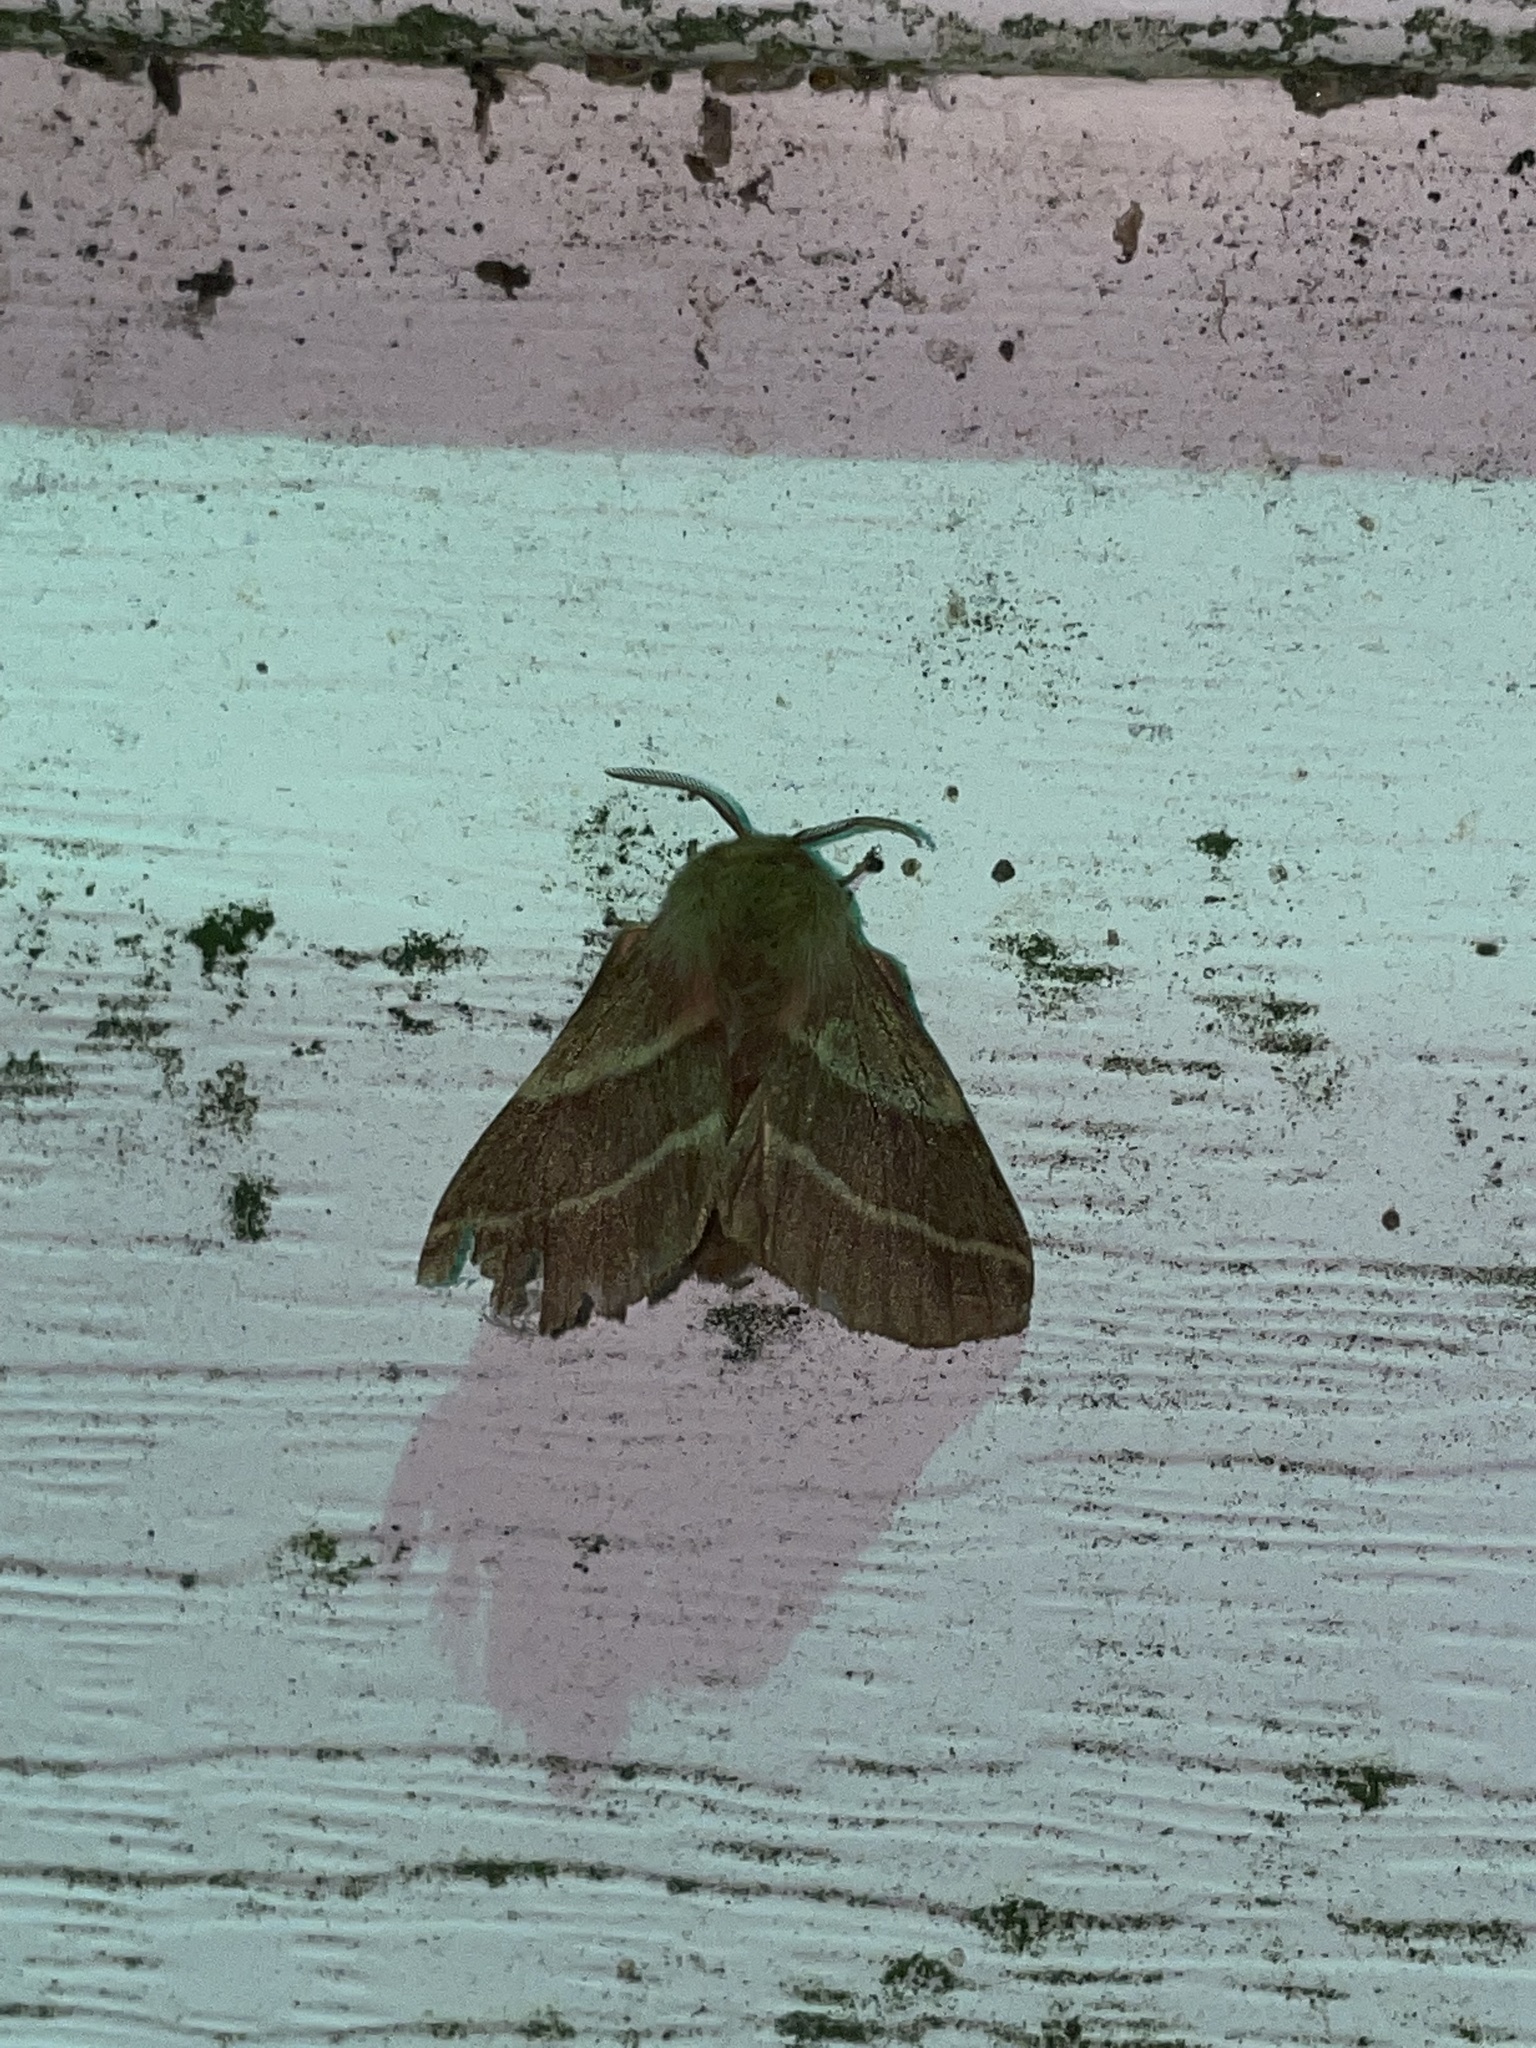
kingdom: Animalia
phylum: Arthropoda
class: Insecta
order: Lepidoptera
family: Lasiocampidae
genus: Malacosoma
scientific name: Malacosoma americana
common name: Eastern tent caterpillar moth
